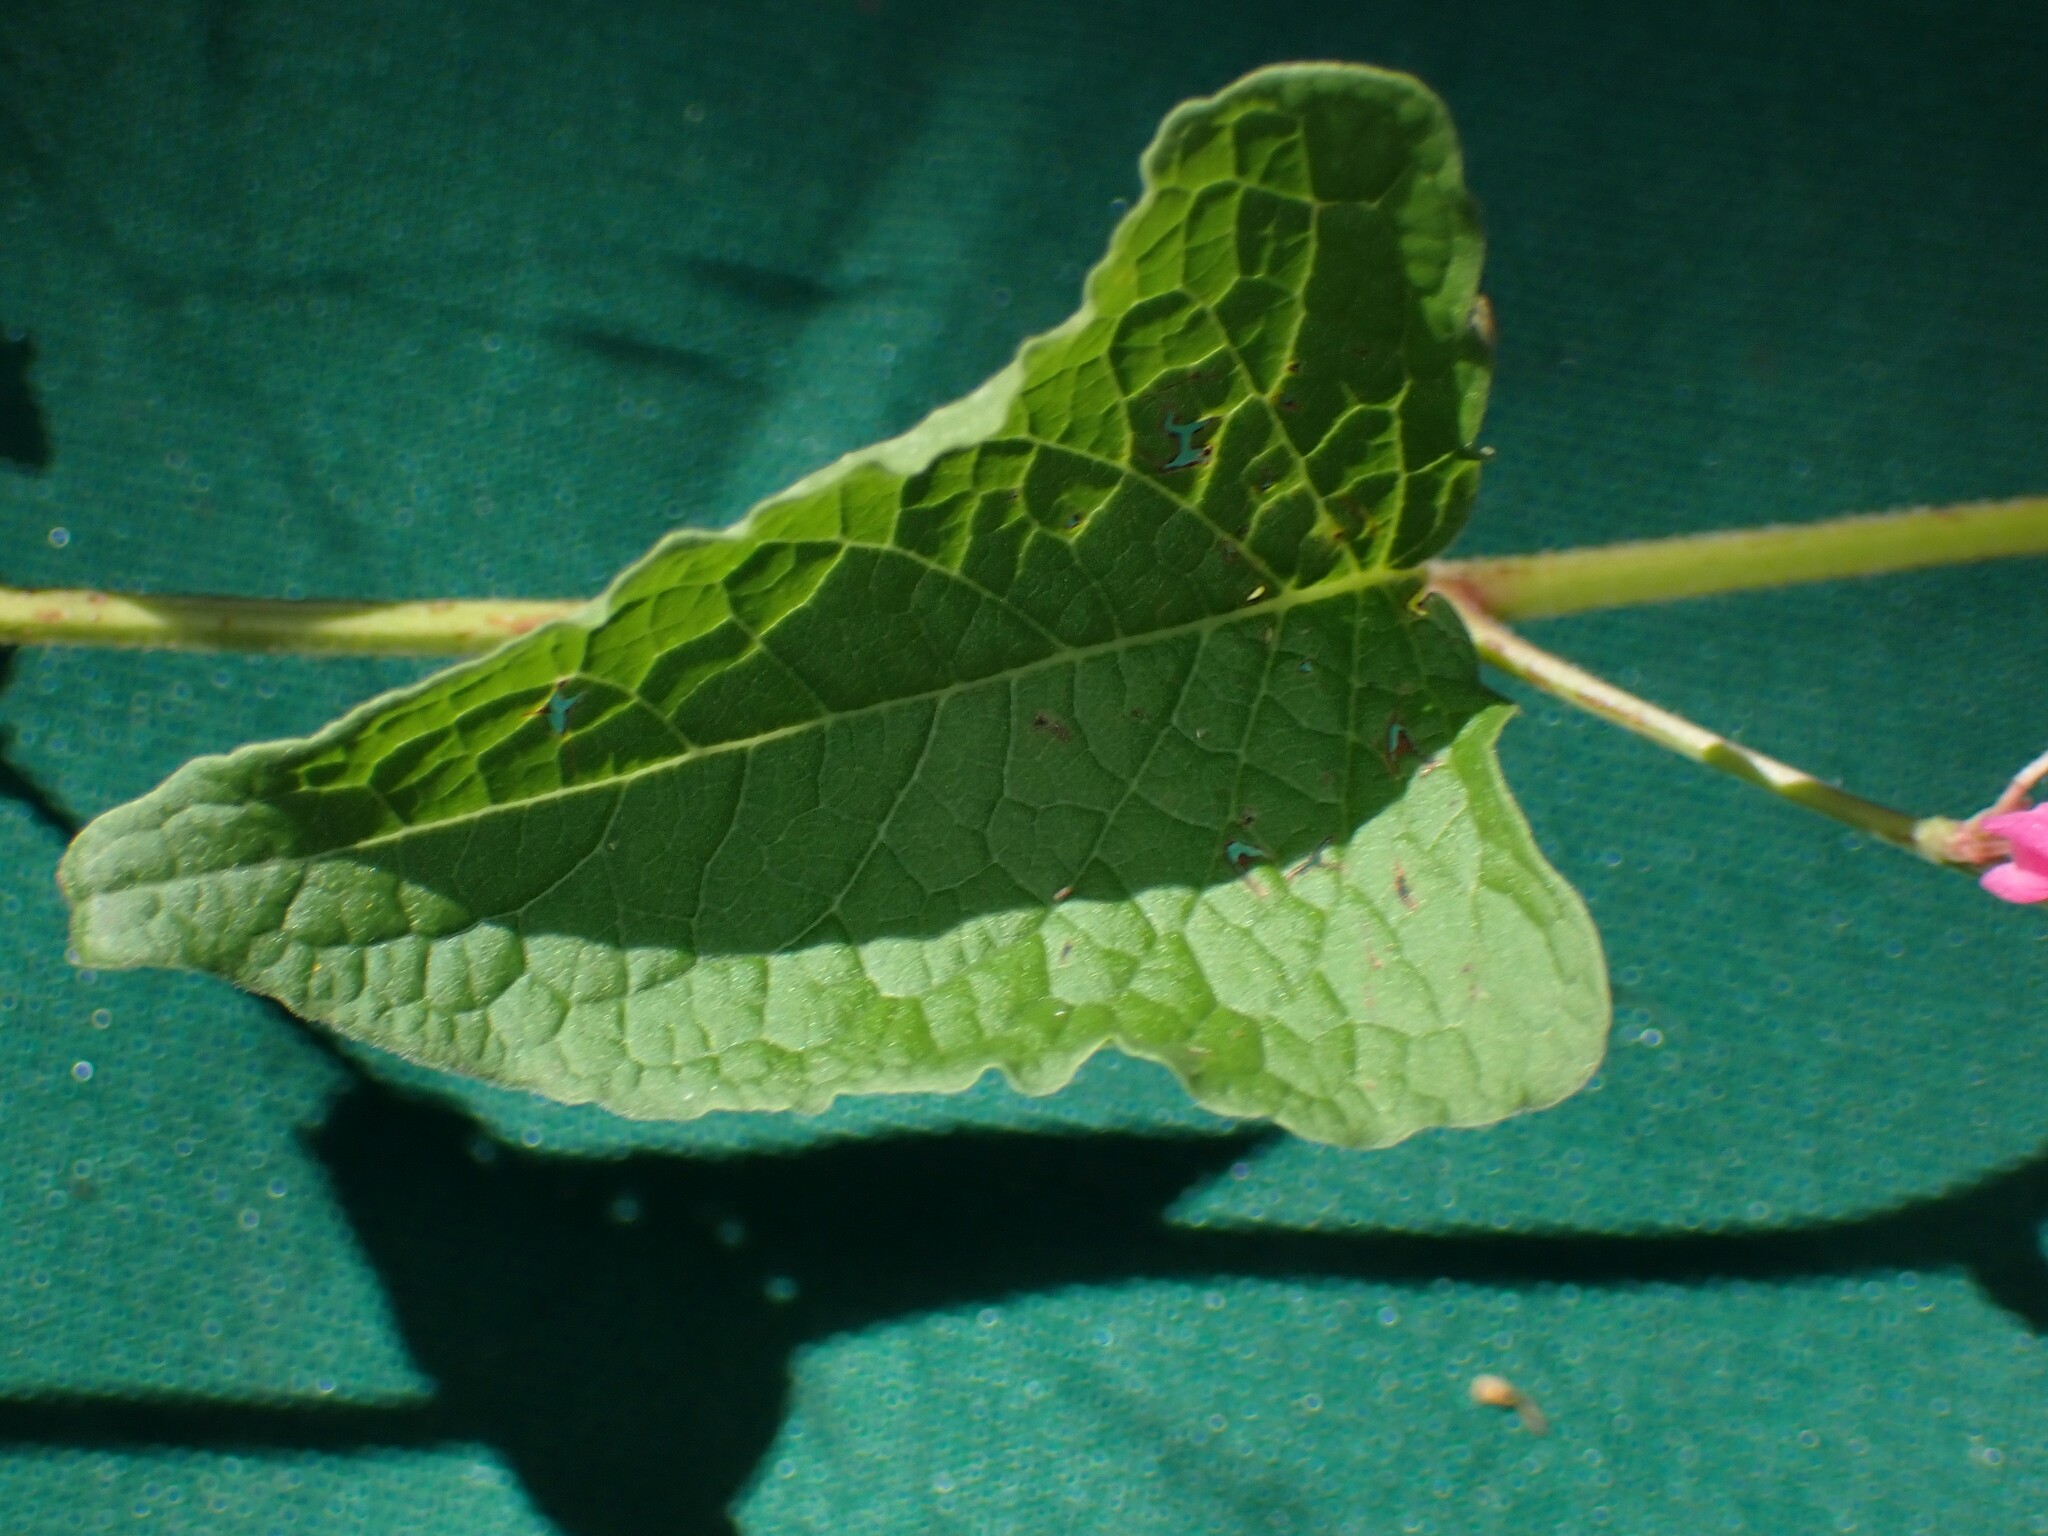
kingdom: Plantae
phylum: Tracheophyta
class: Magnoliopsida
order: Caryophyllales
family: Polygonaceae
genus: Antigonon
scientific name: Antigonon leptopus
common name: Coral vine
